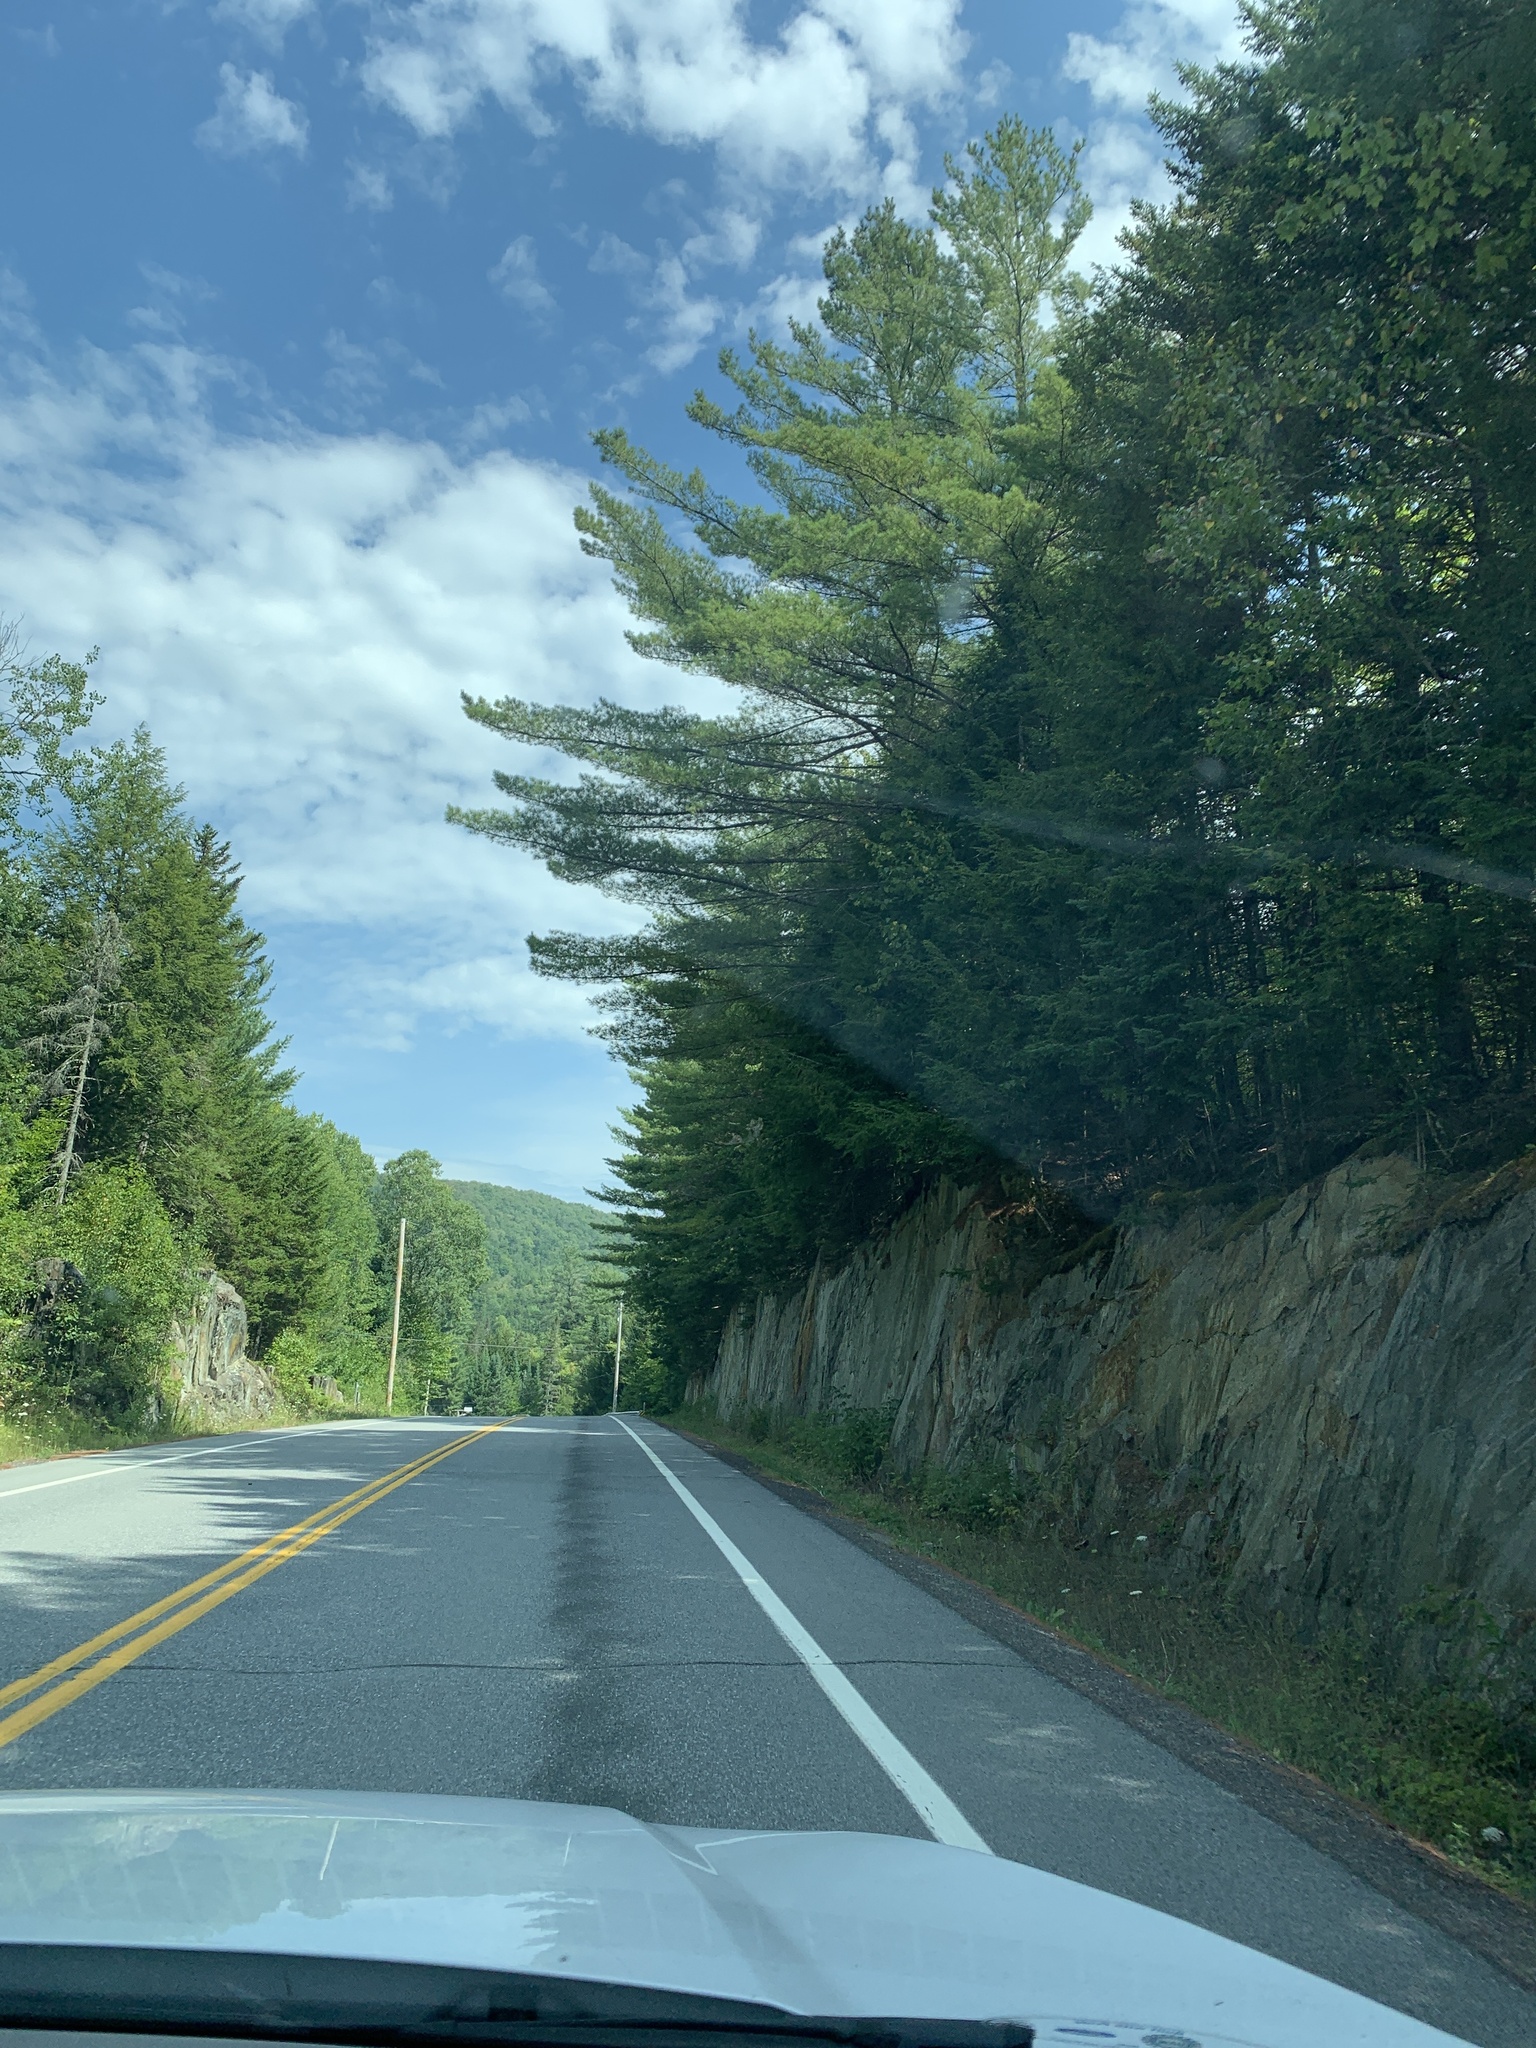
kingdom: Plantae
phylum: Tracheophyta
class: Pinopsida
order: Pinales
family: Pinaceae
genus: Pinus
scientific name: Pinus strobus
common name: Weymouth pine
